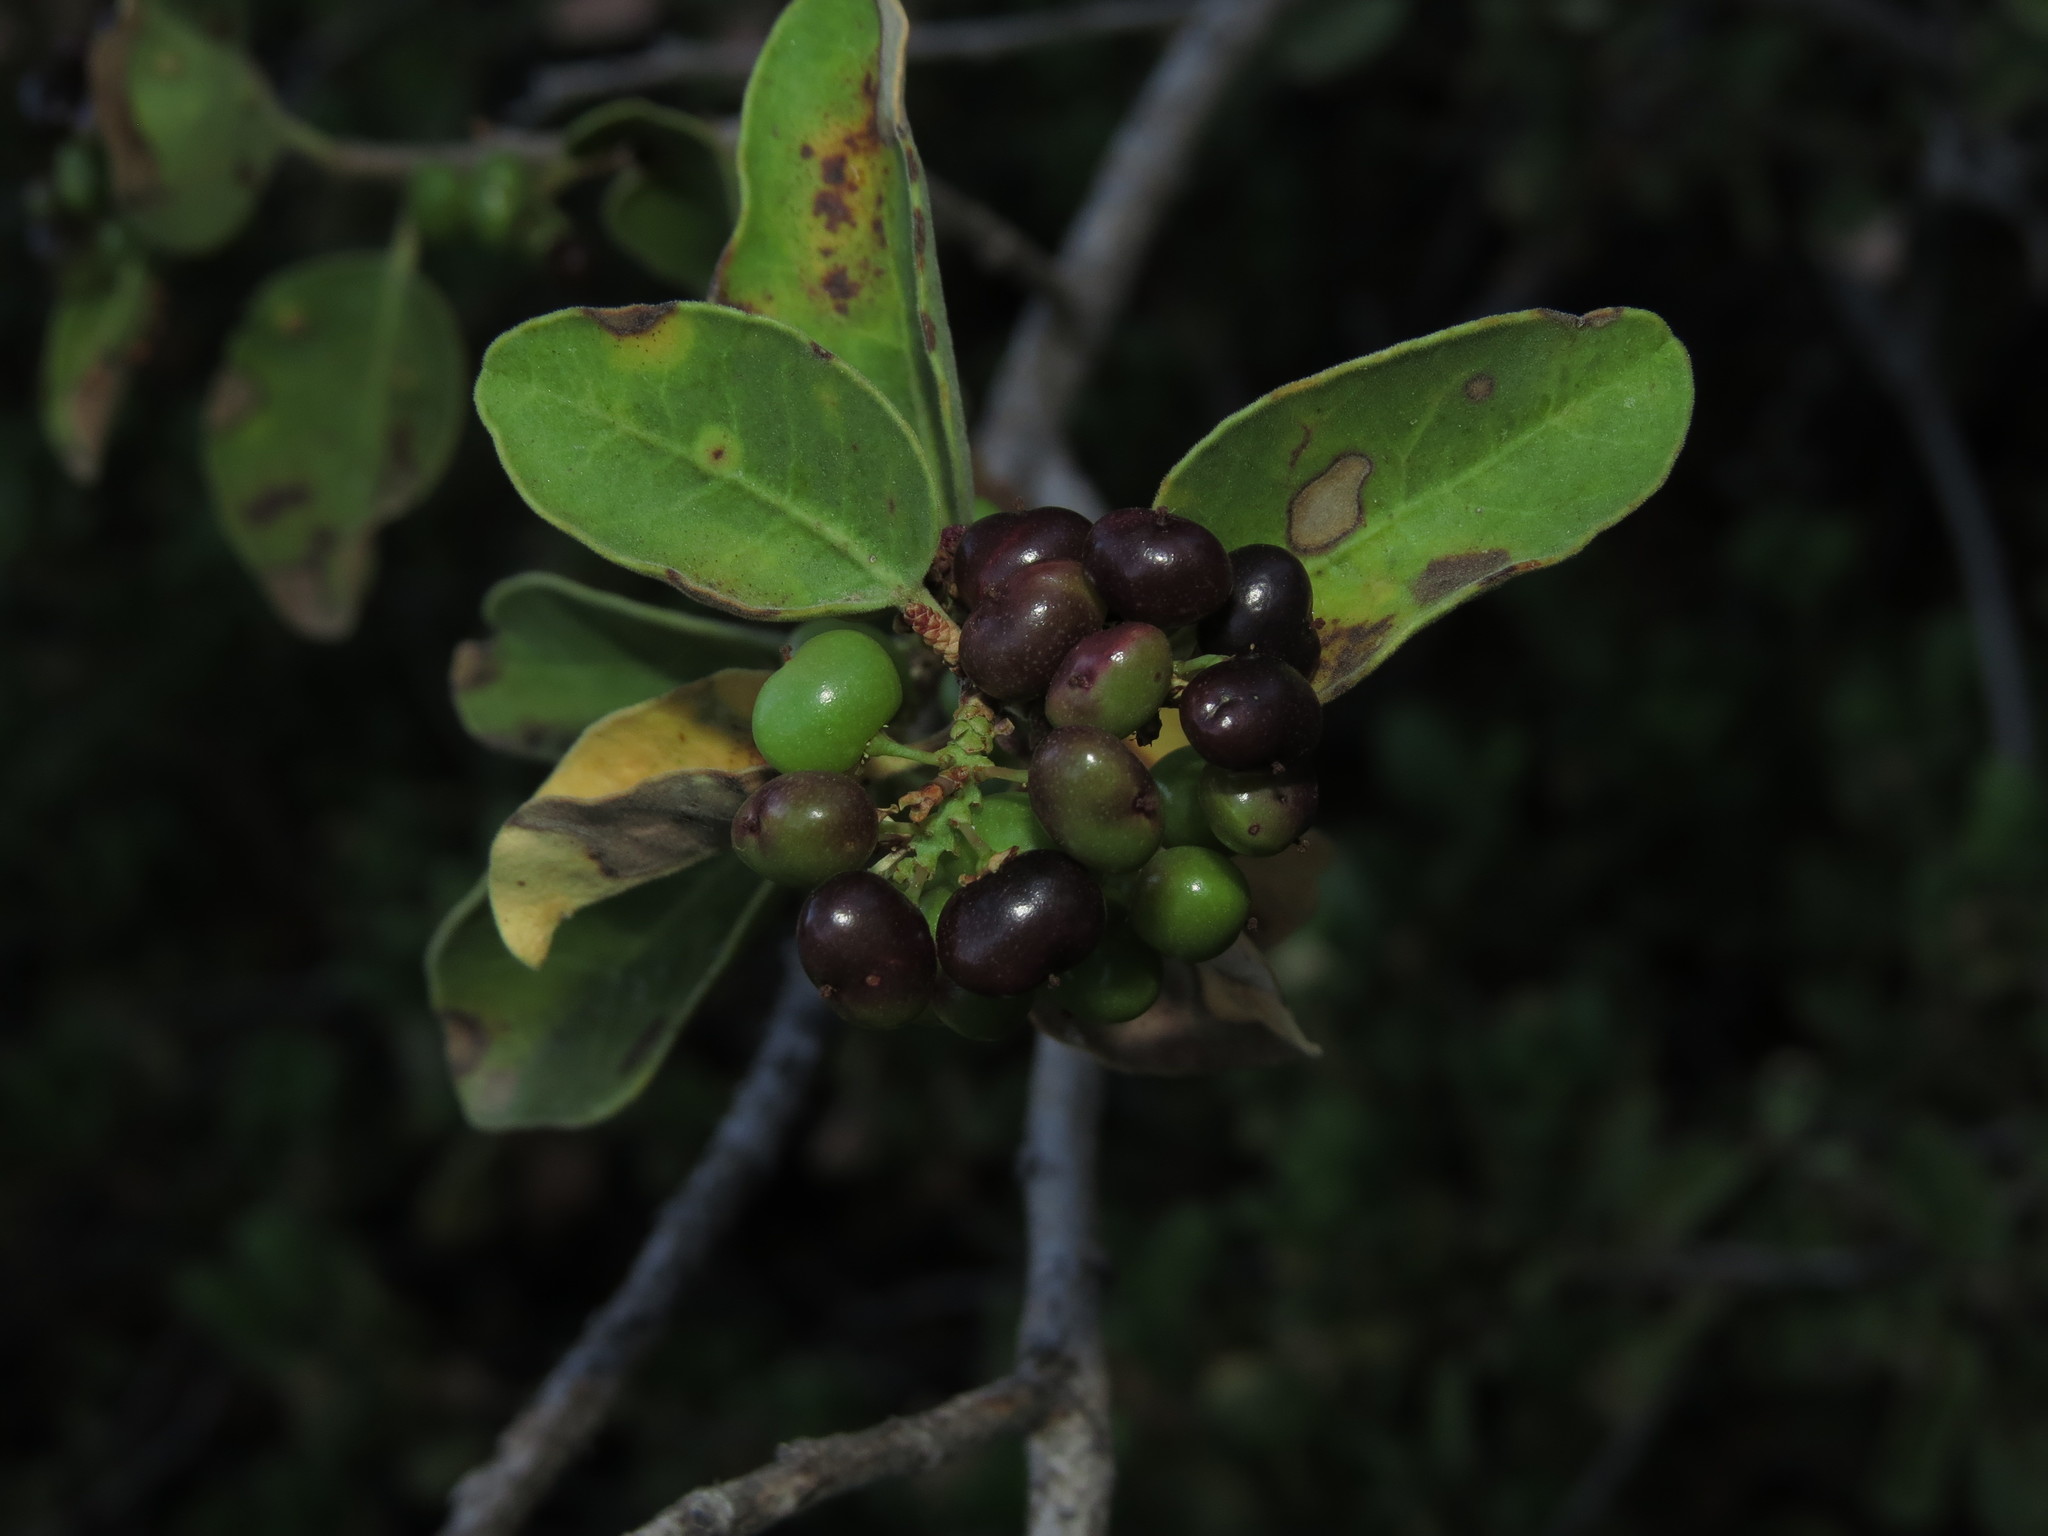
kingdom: Plantae
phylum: Tracheophyta
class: Magnoliopsida
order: Sapindales
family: Anacardiaceae
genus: Schinus
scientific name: Schinus montana
